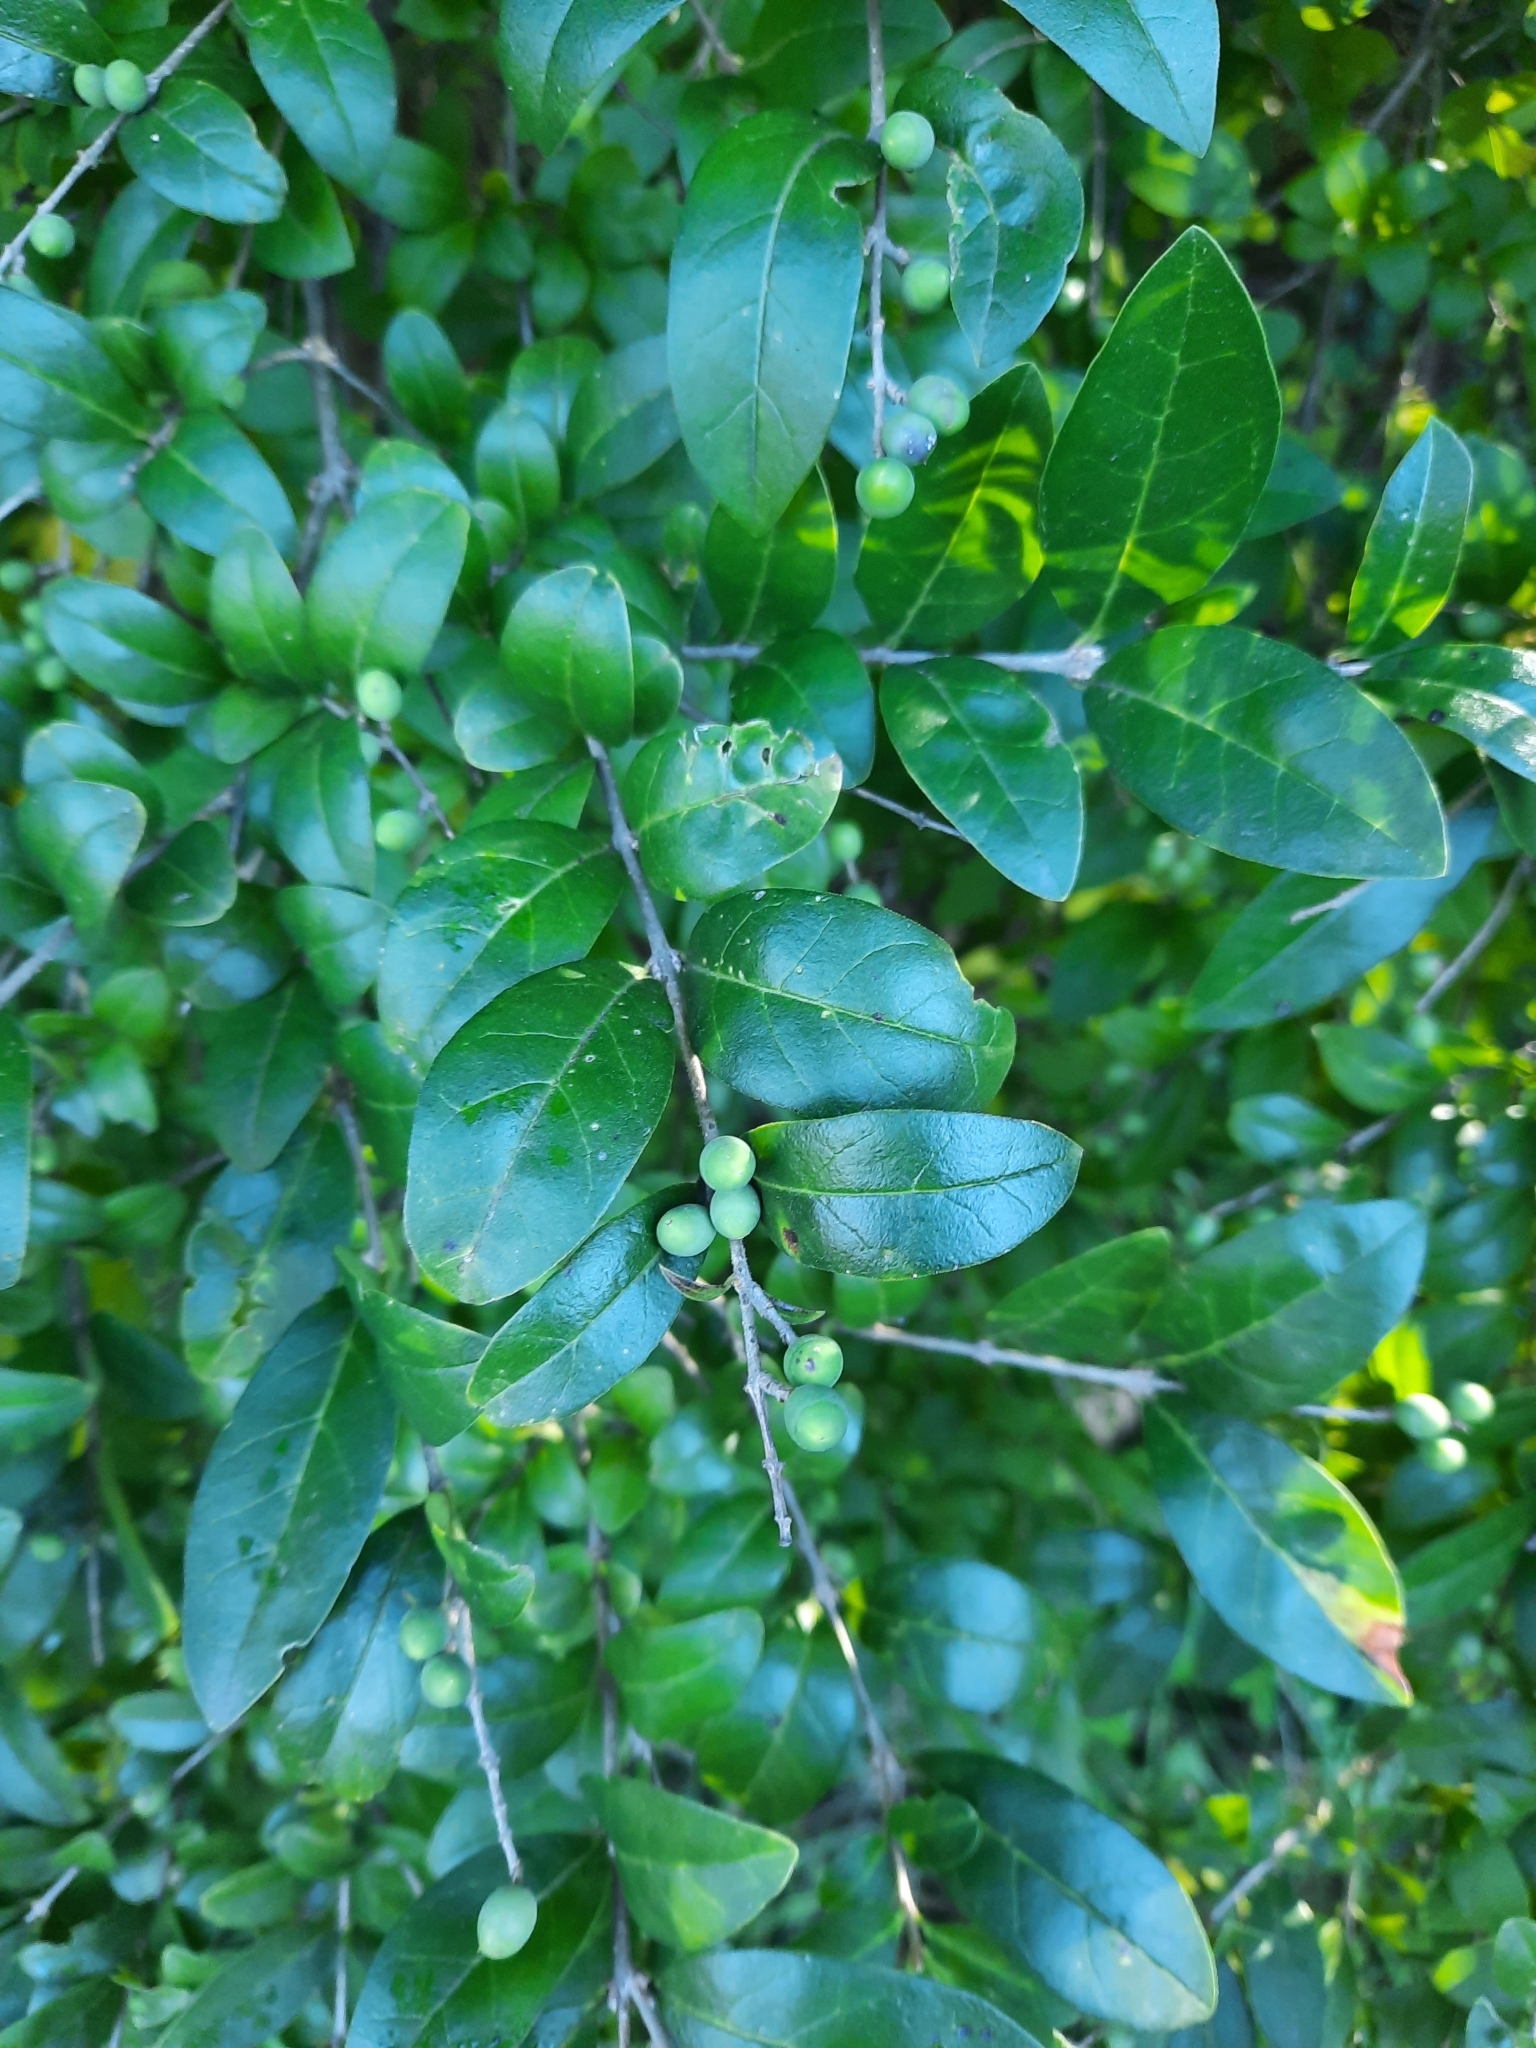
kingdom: Plantae
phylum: Tracheophyta
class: Magnoliopsida
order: Lamiales
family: Oleaceae
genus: Ligustrum
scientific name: Ligustrum obtusifolium
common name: Border privet
